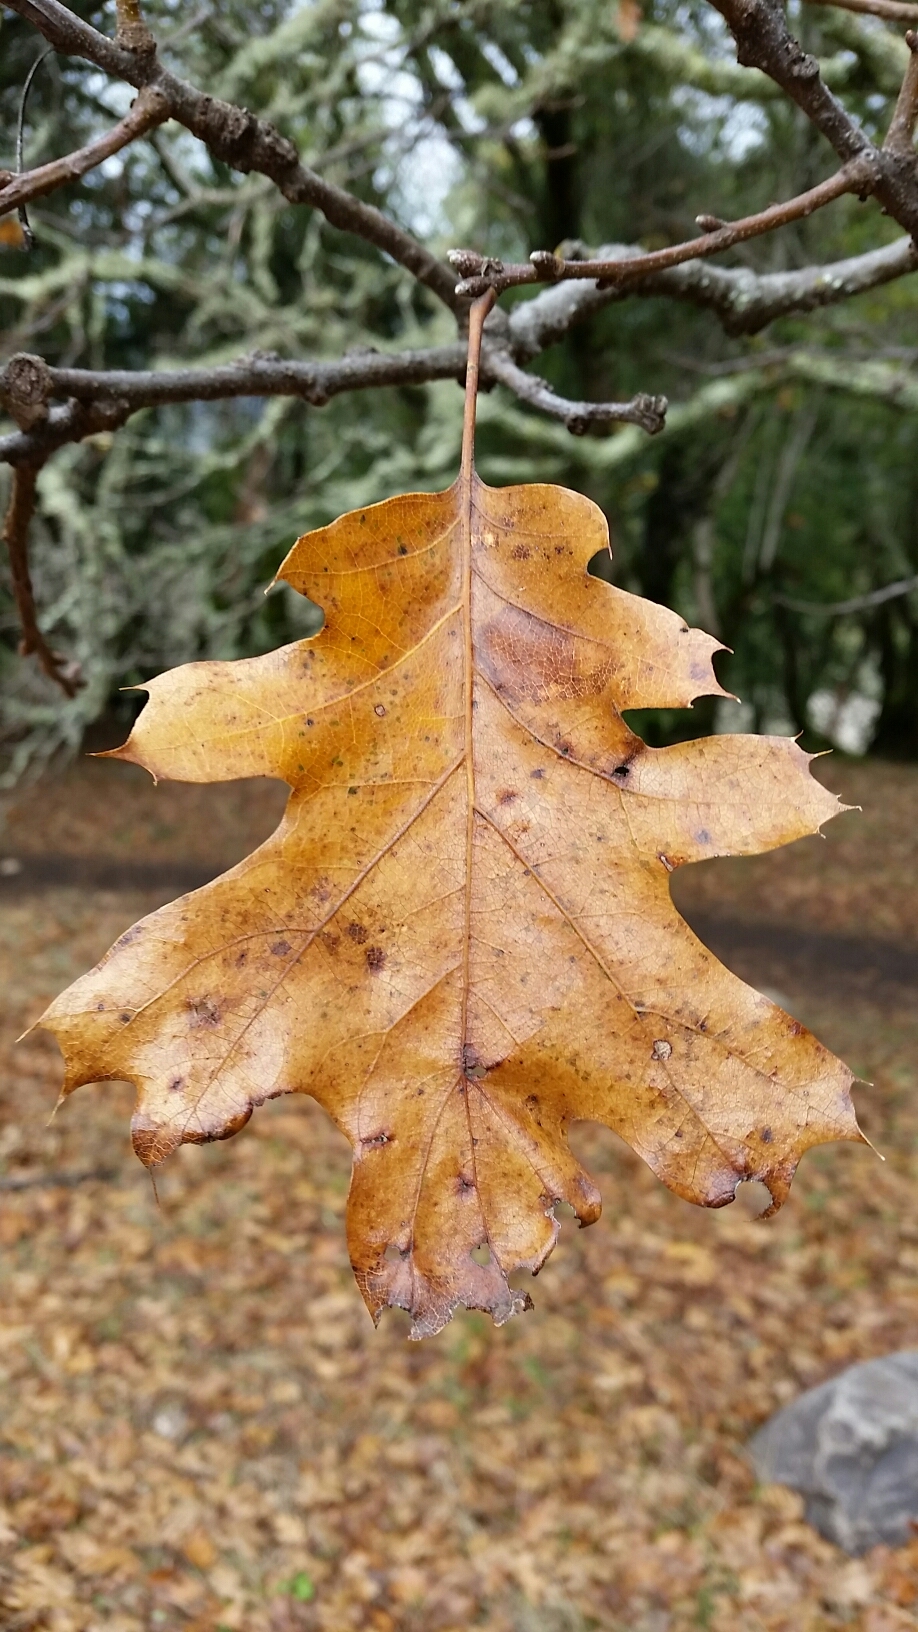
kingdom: Plantae
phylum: Tracheophyta
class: Magnoliopsida
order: Fagales
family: Fagaceae
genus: Quercus
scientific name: Quercus kelloggii
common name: California black oak
